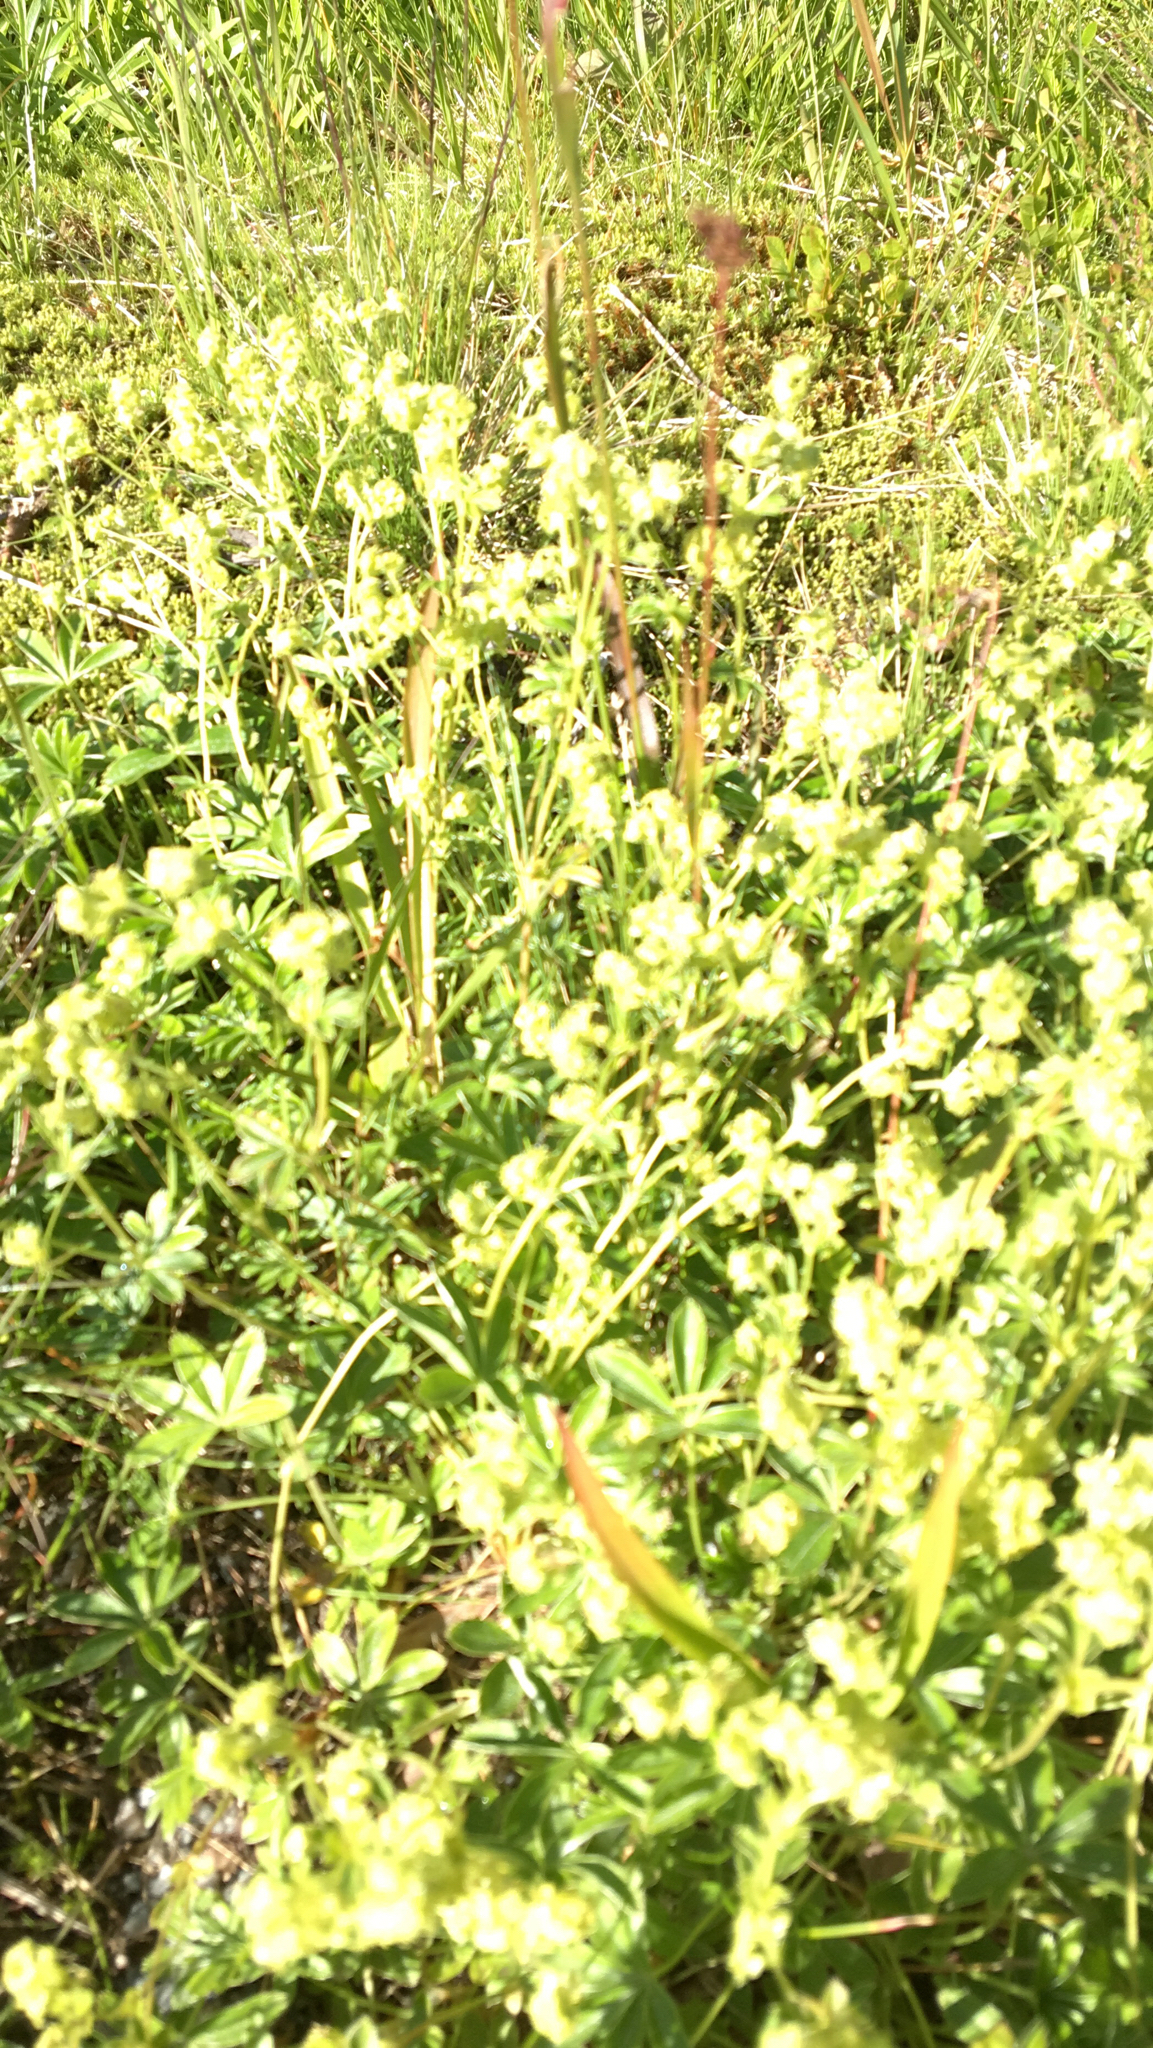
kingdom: Plantae
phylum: Tracheophyta
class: Magnoliopsida
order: Rosales
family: Rosaceae
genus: Alchemilla
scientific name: Alchemilla alpina
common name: Alpine lady's-mantle
